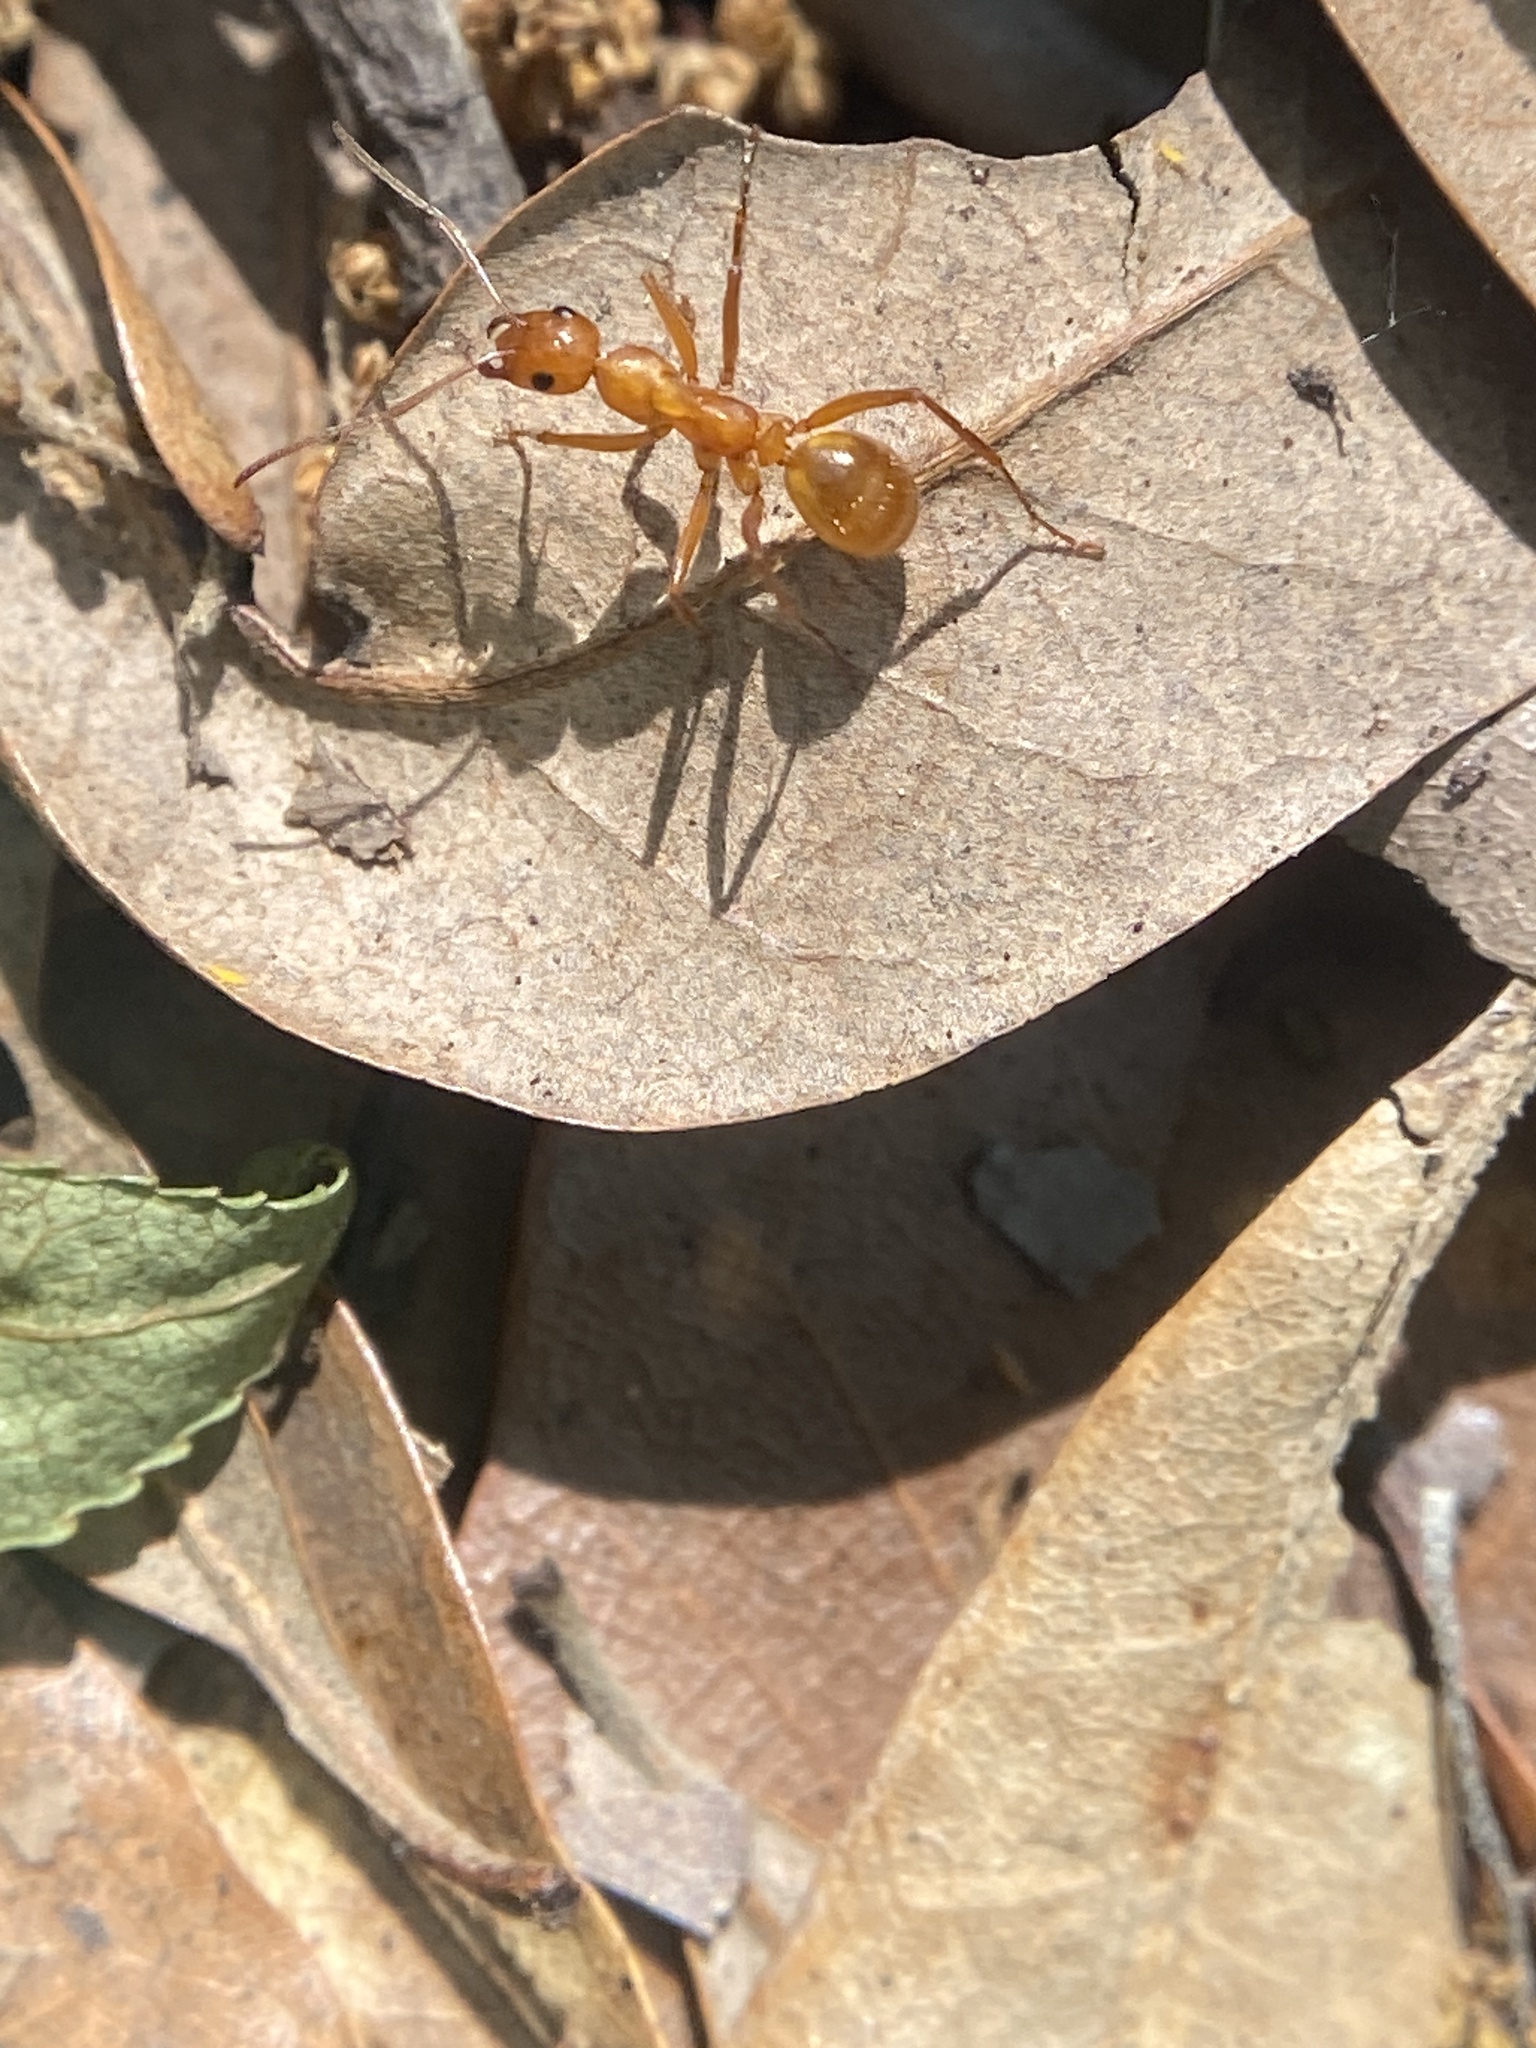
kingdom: Animalia
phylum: Arthropoda
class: Insecta
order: Hymenoptera
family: Formicidae
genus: Formica
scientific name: Formica pallidefulva
